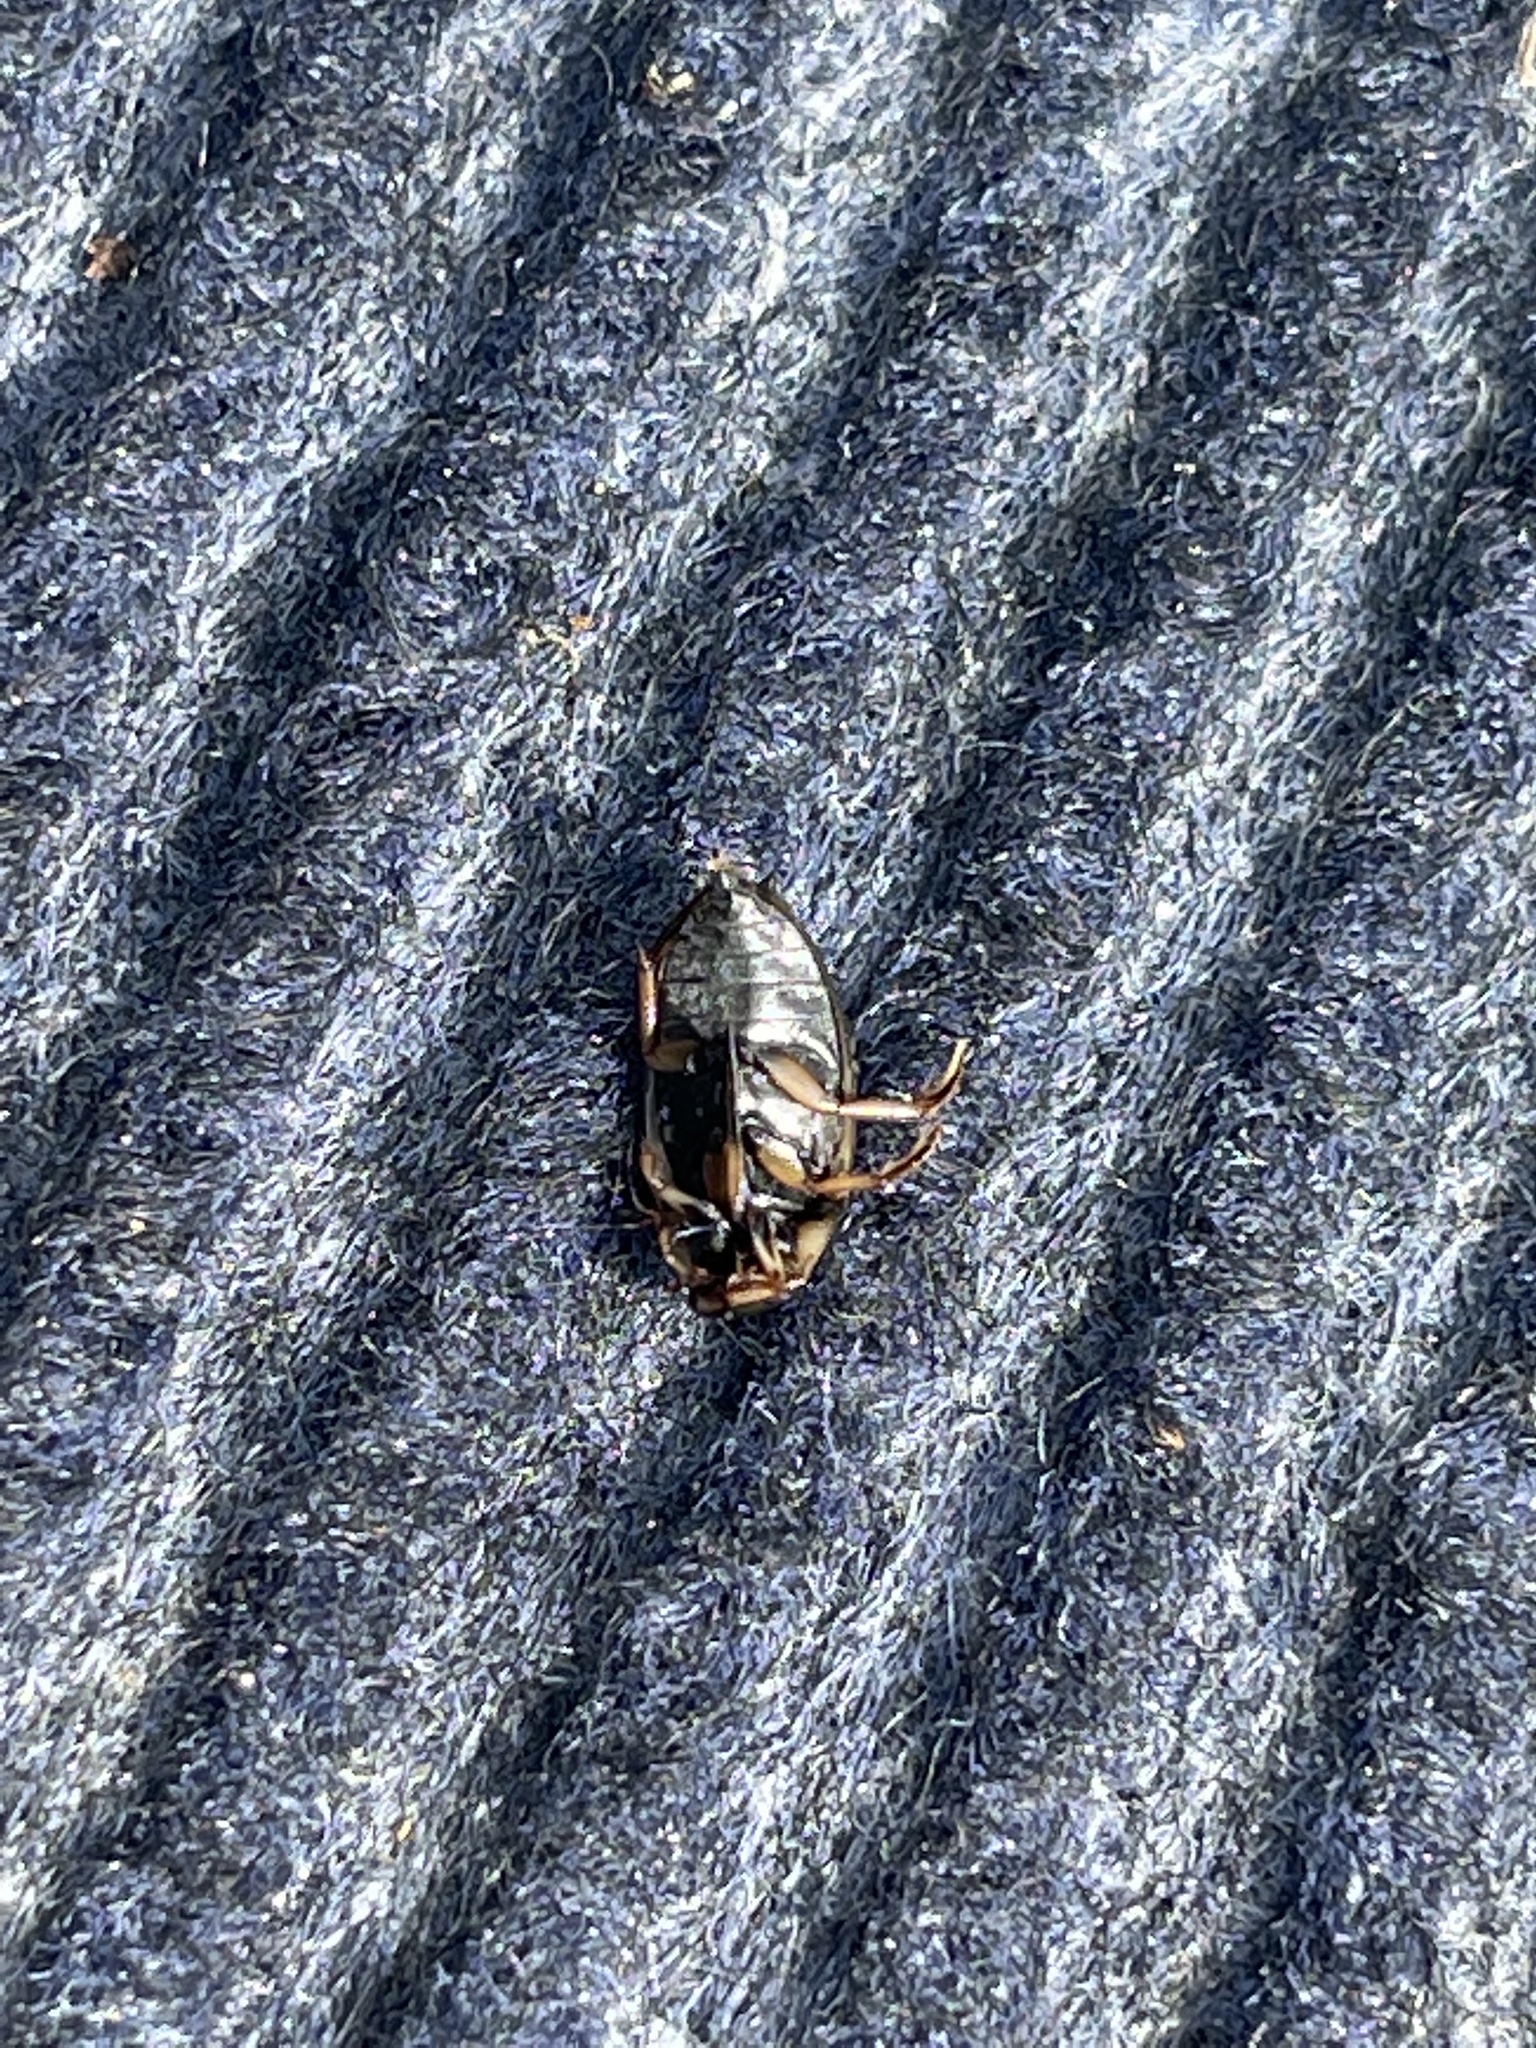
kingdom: Animalia
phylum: Arthropoda
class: Insecta
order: Coleoptera
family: Hydrophilidae
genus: Tropisternus
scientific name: Tropisternus lateralis
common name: Lateral-banded water scavenger beetle
